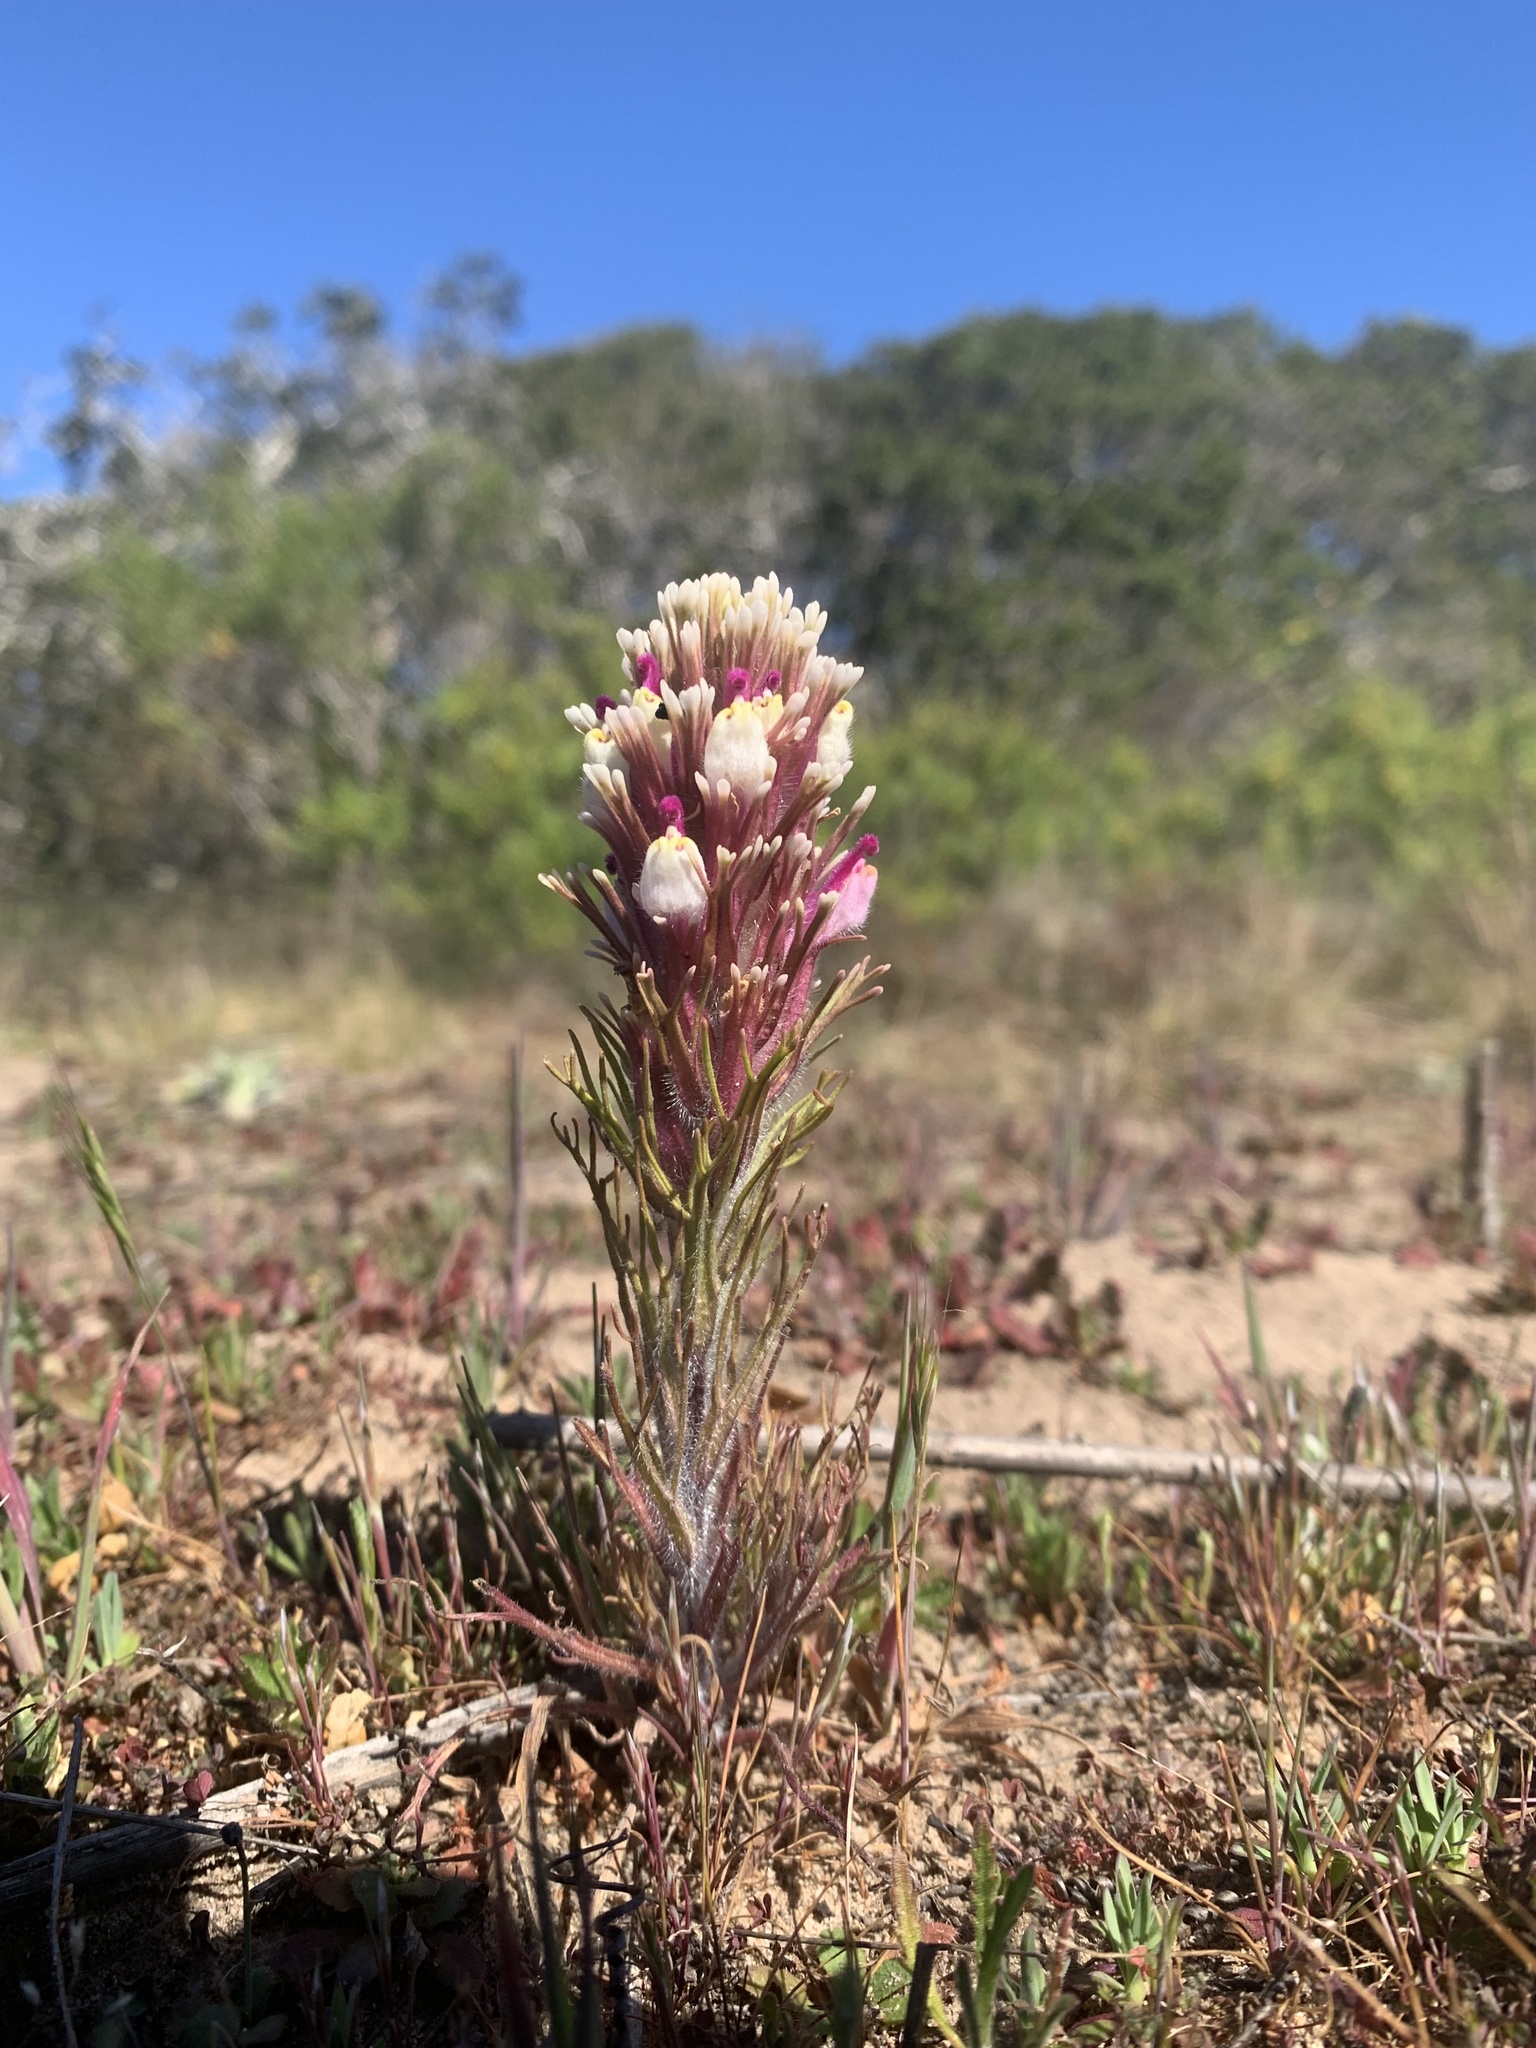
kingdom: Plantae
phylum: Tracheophyta
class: Magnoliopsida
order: Lamiales
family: Orobanchaceae
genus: Castilleja
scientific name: Castilleja exserta
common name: Purple owl-clover
